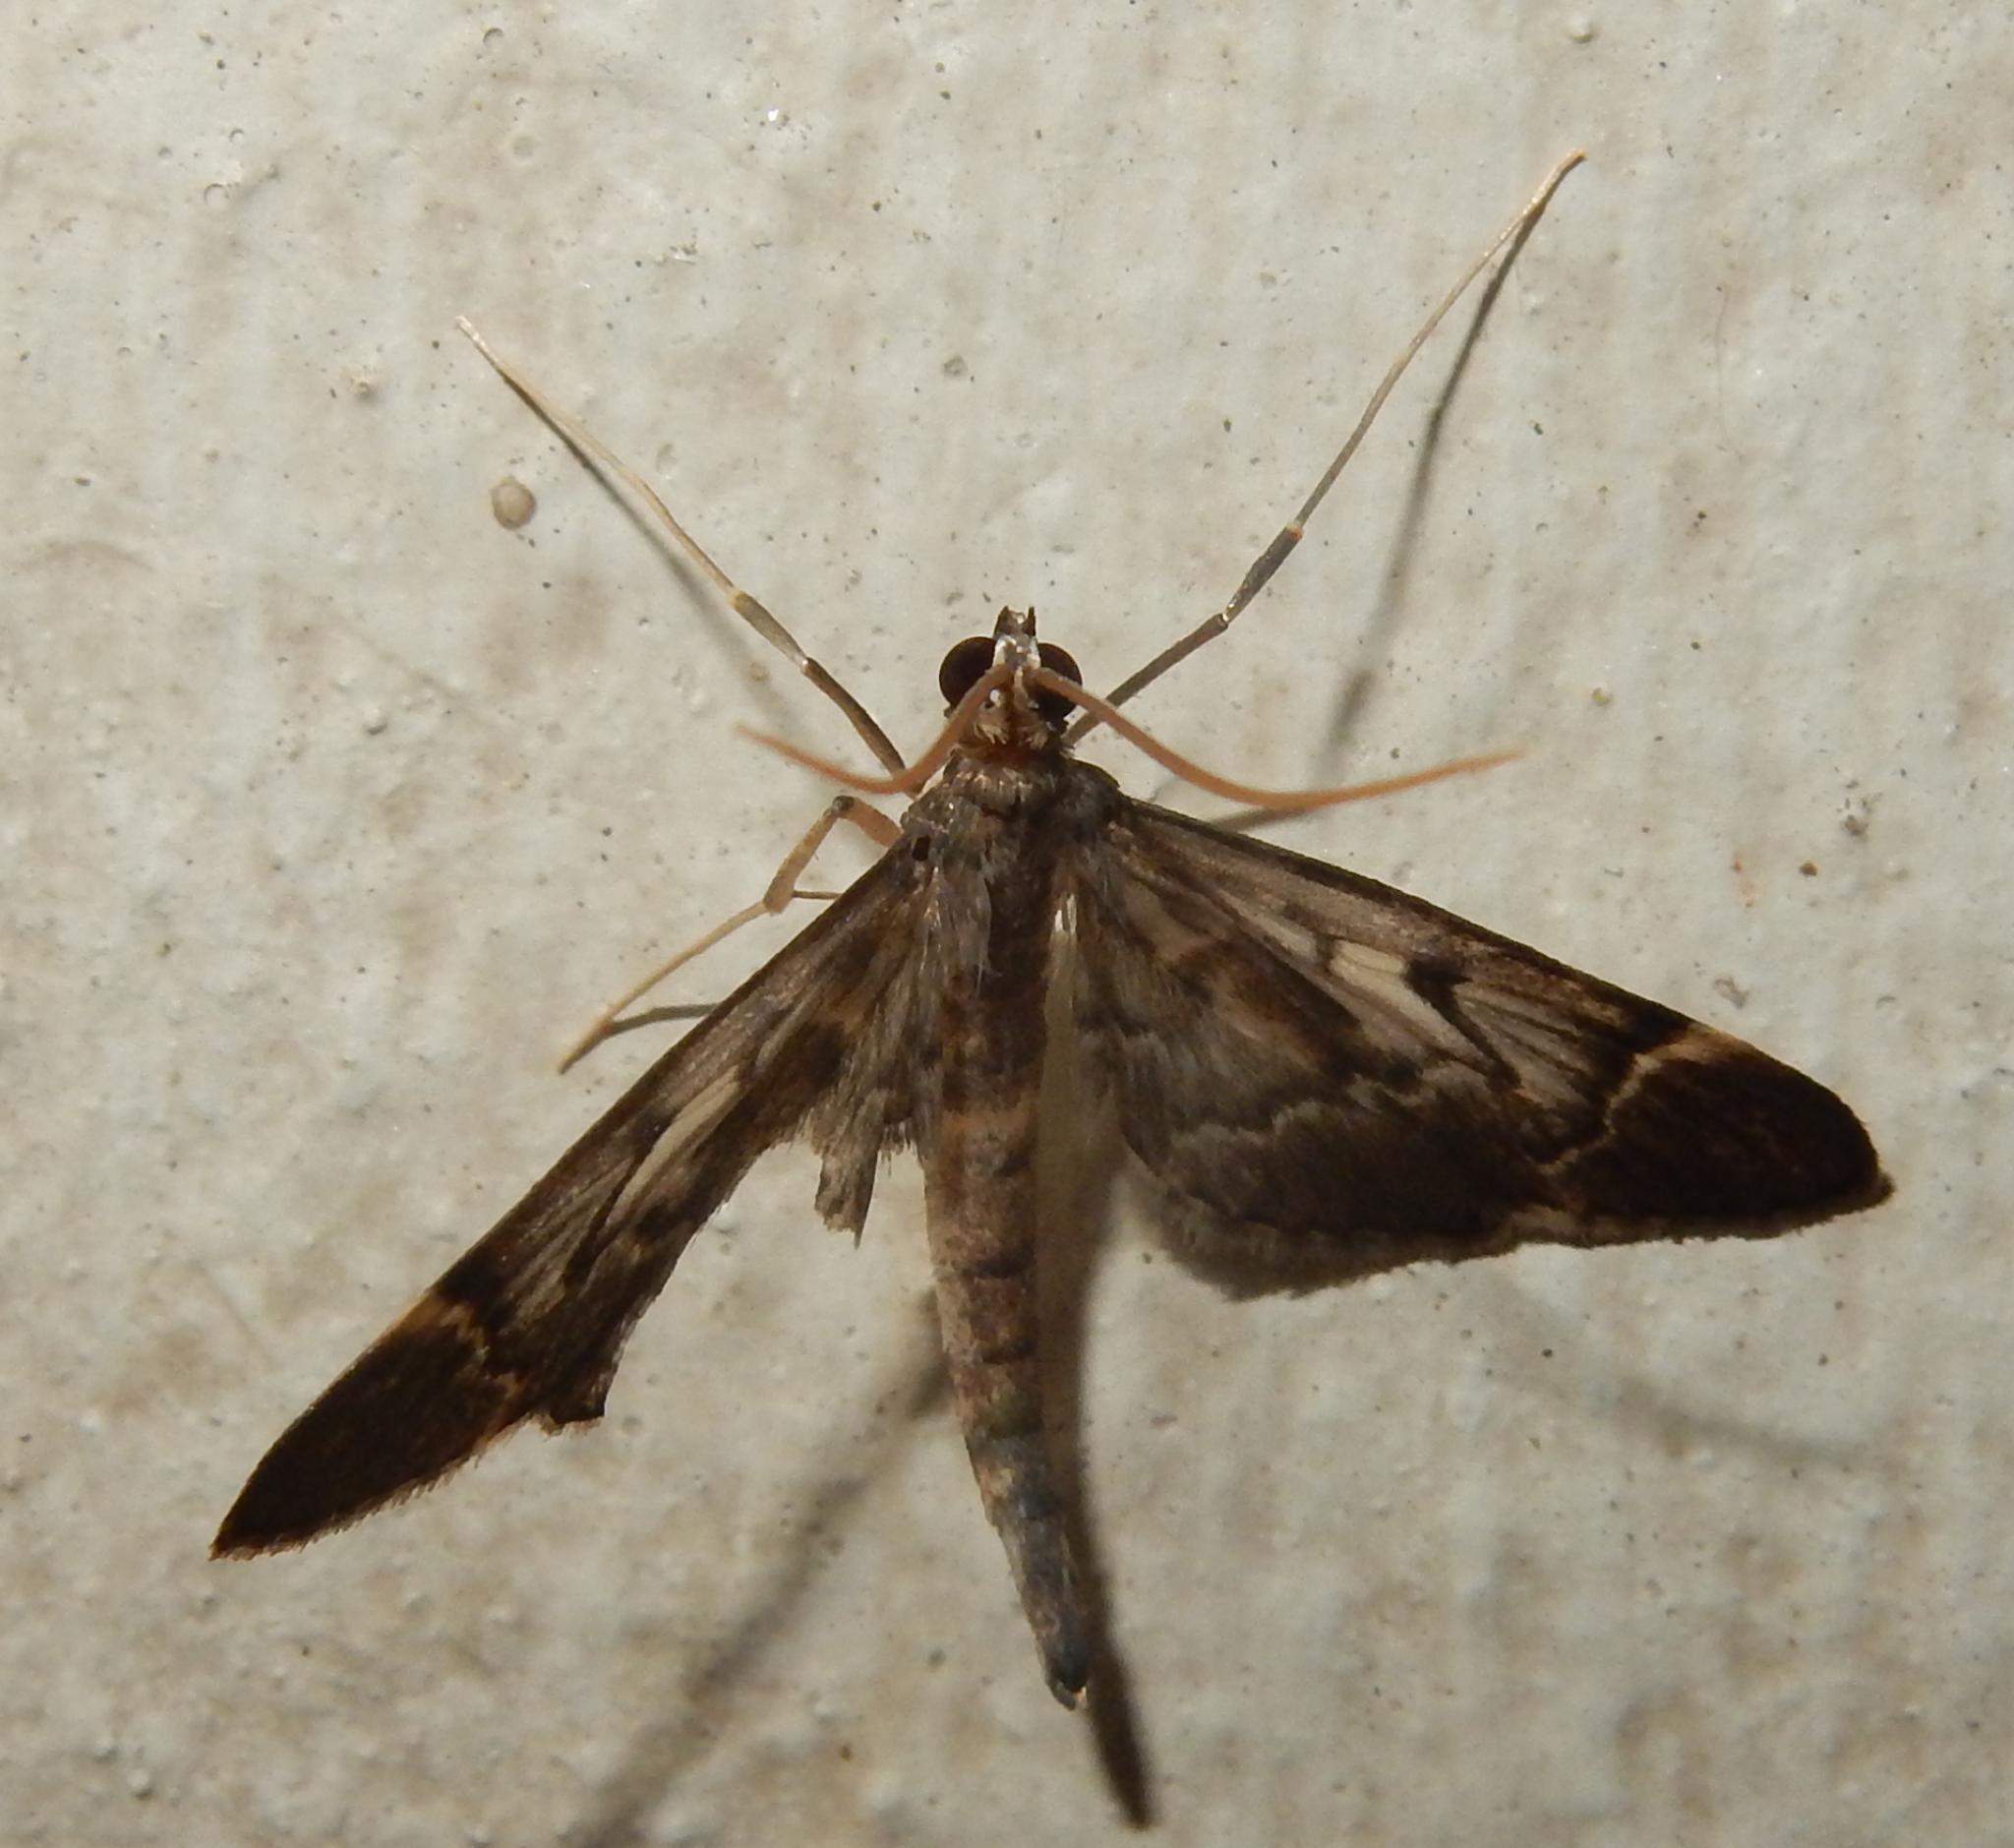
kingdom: Animalia
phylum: Arthropoda
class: Insecta
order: Lepidoptera
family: Crambidae
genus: Duponchelia
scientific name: Duponchelia lanceolalis
